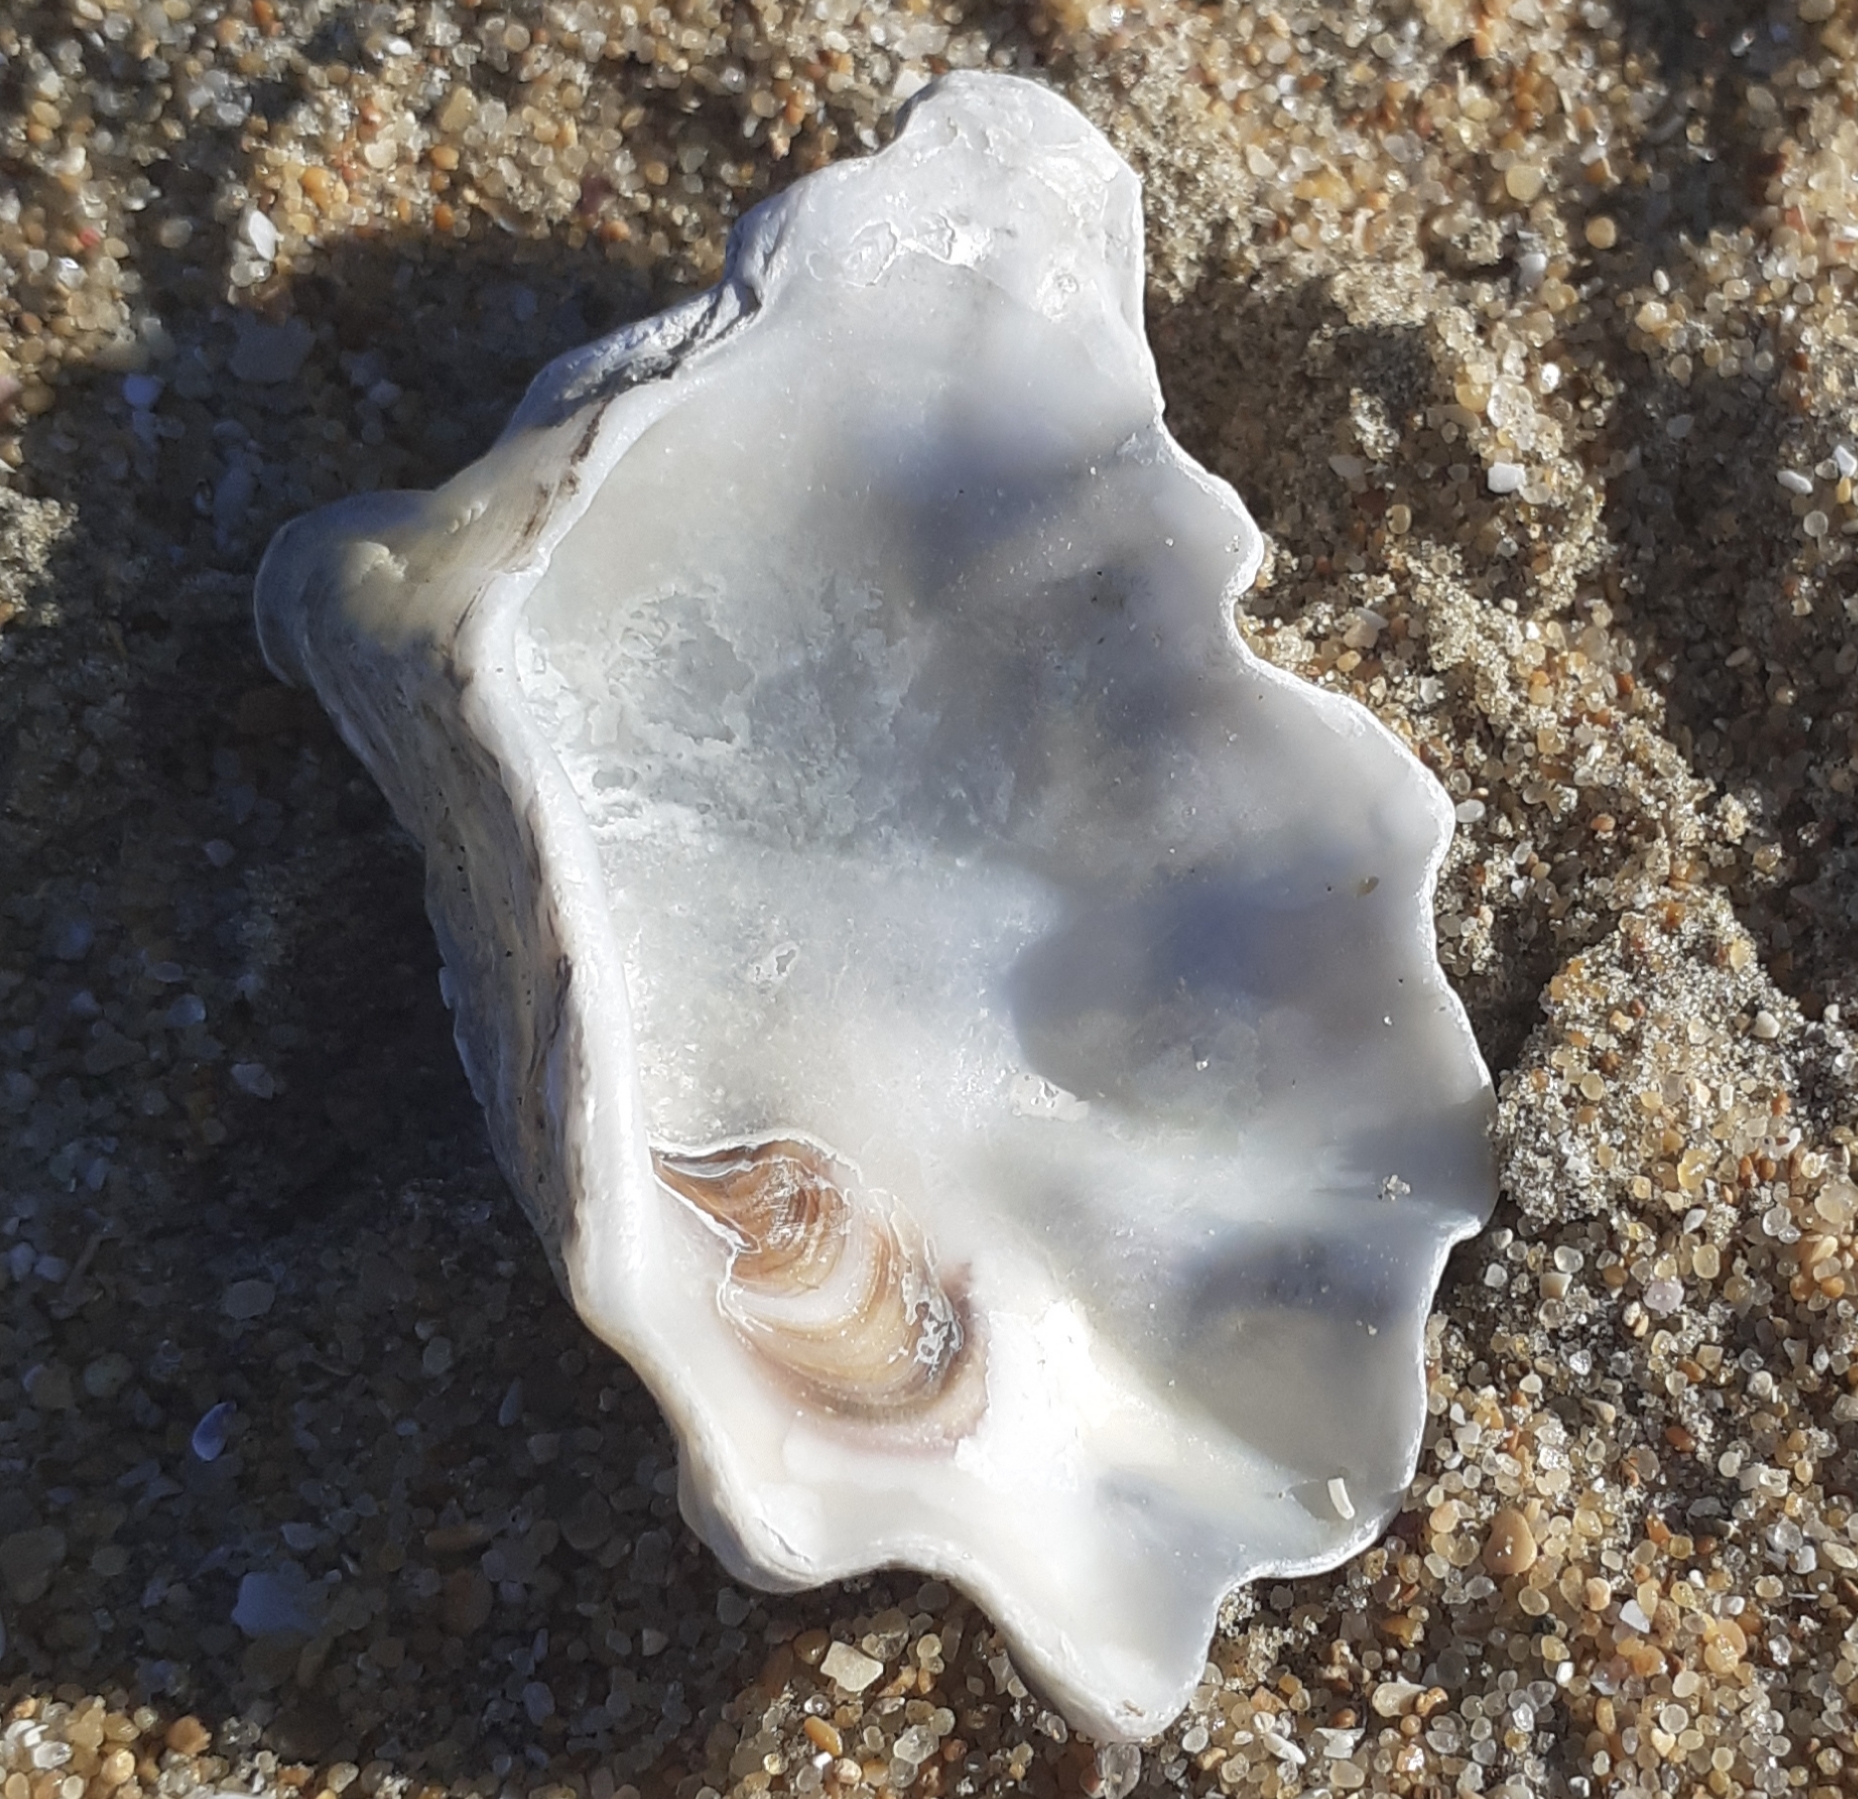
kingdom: Animalia
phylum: Mollusca
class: Bivalvia
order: Ostreida
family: Ostreidae
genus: Magallana
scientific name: Magallana gigas
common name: Pacific oyster
